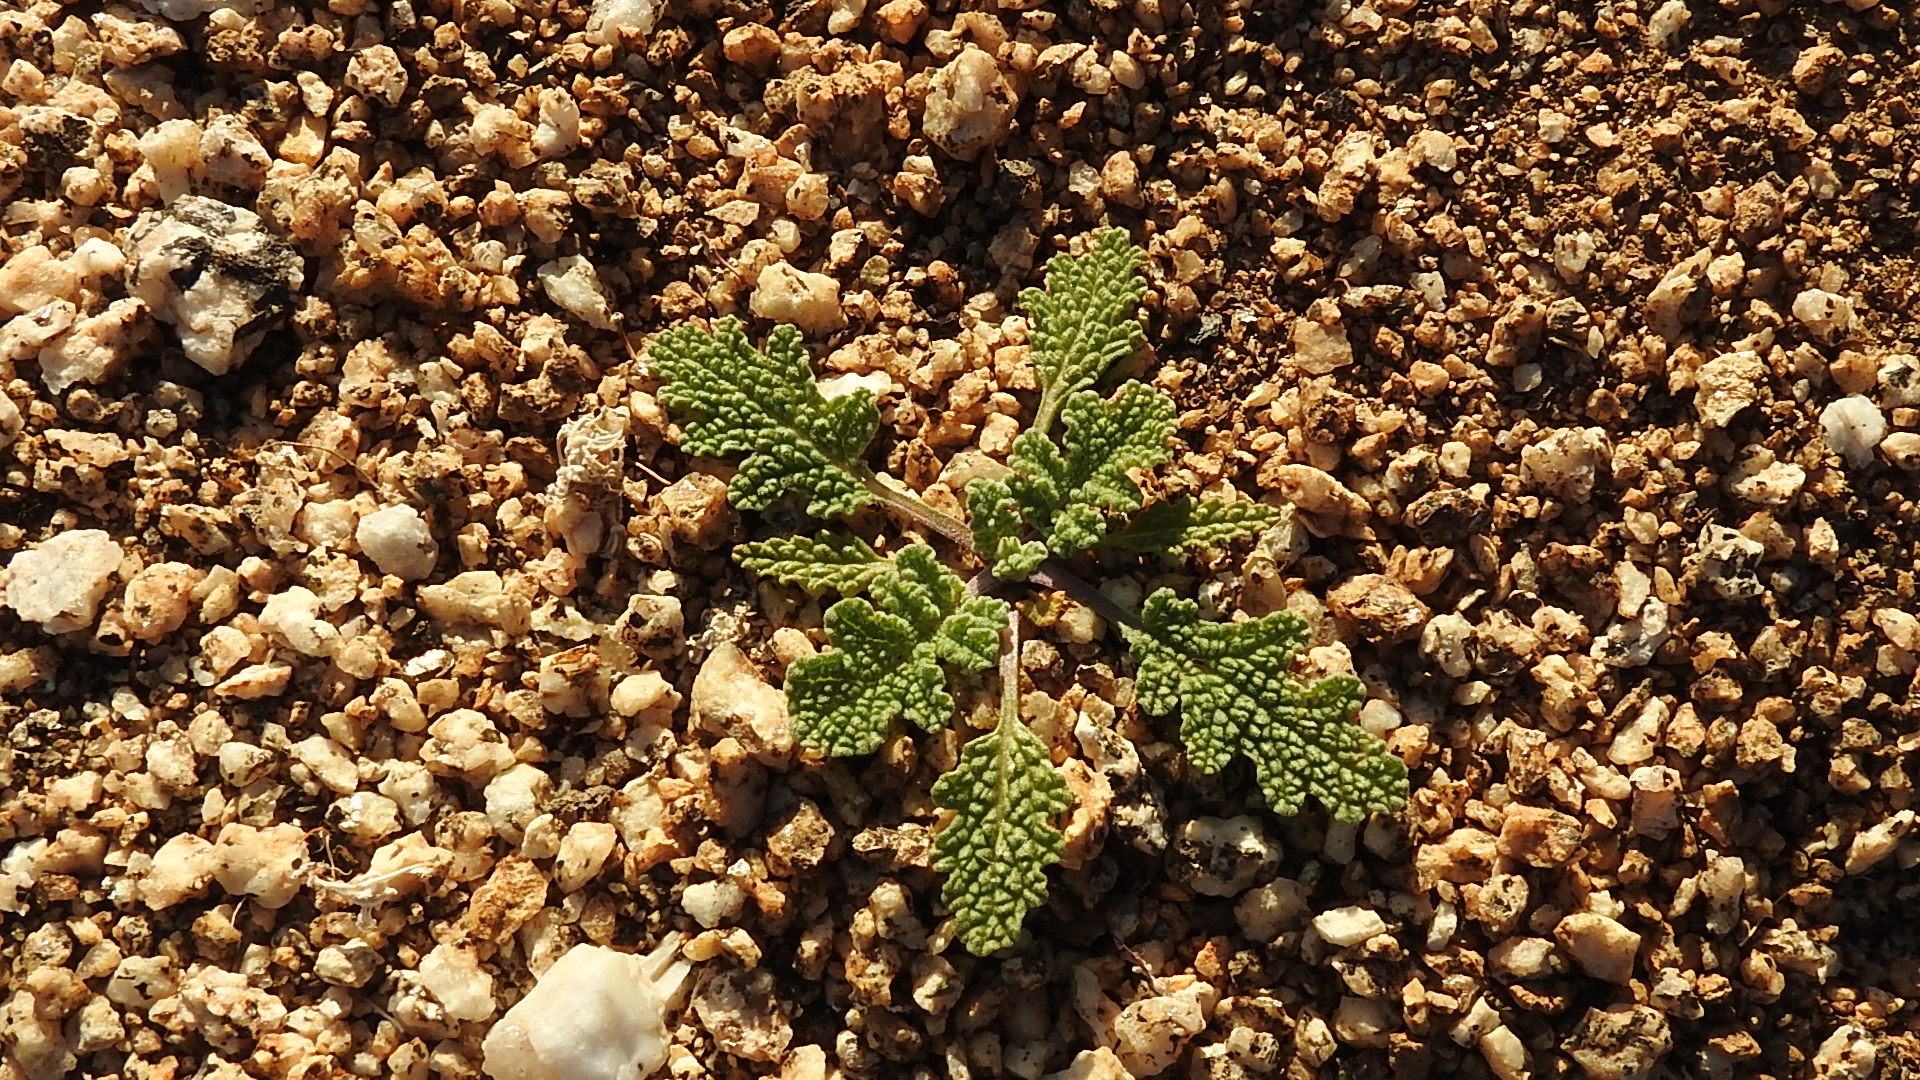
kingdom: Plantae
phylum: Tracheophyta
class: Magnoliopsida
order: Lamiales
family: Lamiaceae
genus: Salvia
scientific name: Salvia columbariae
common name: Chia
